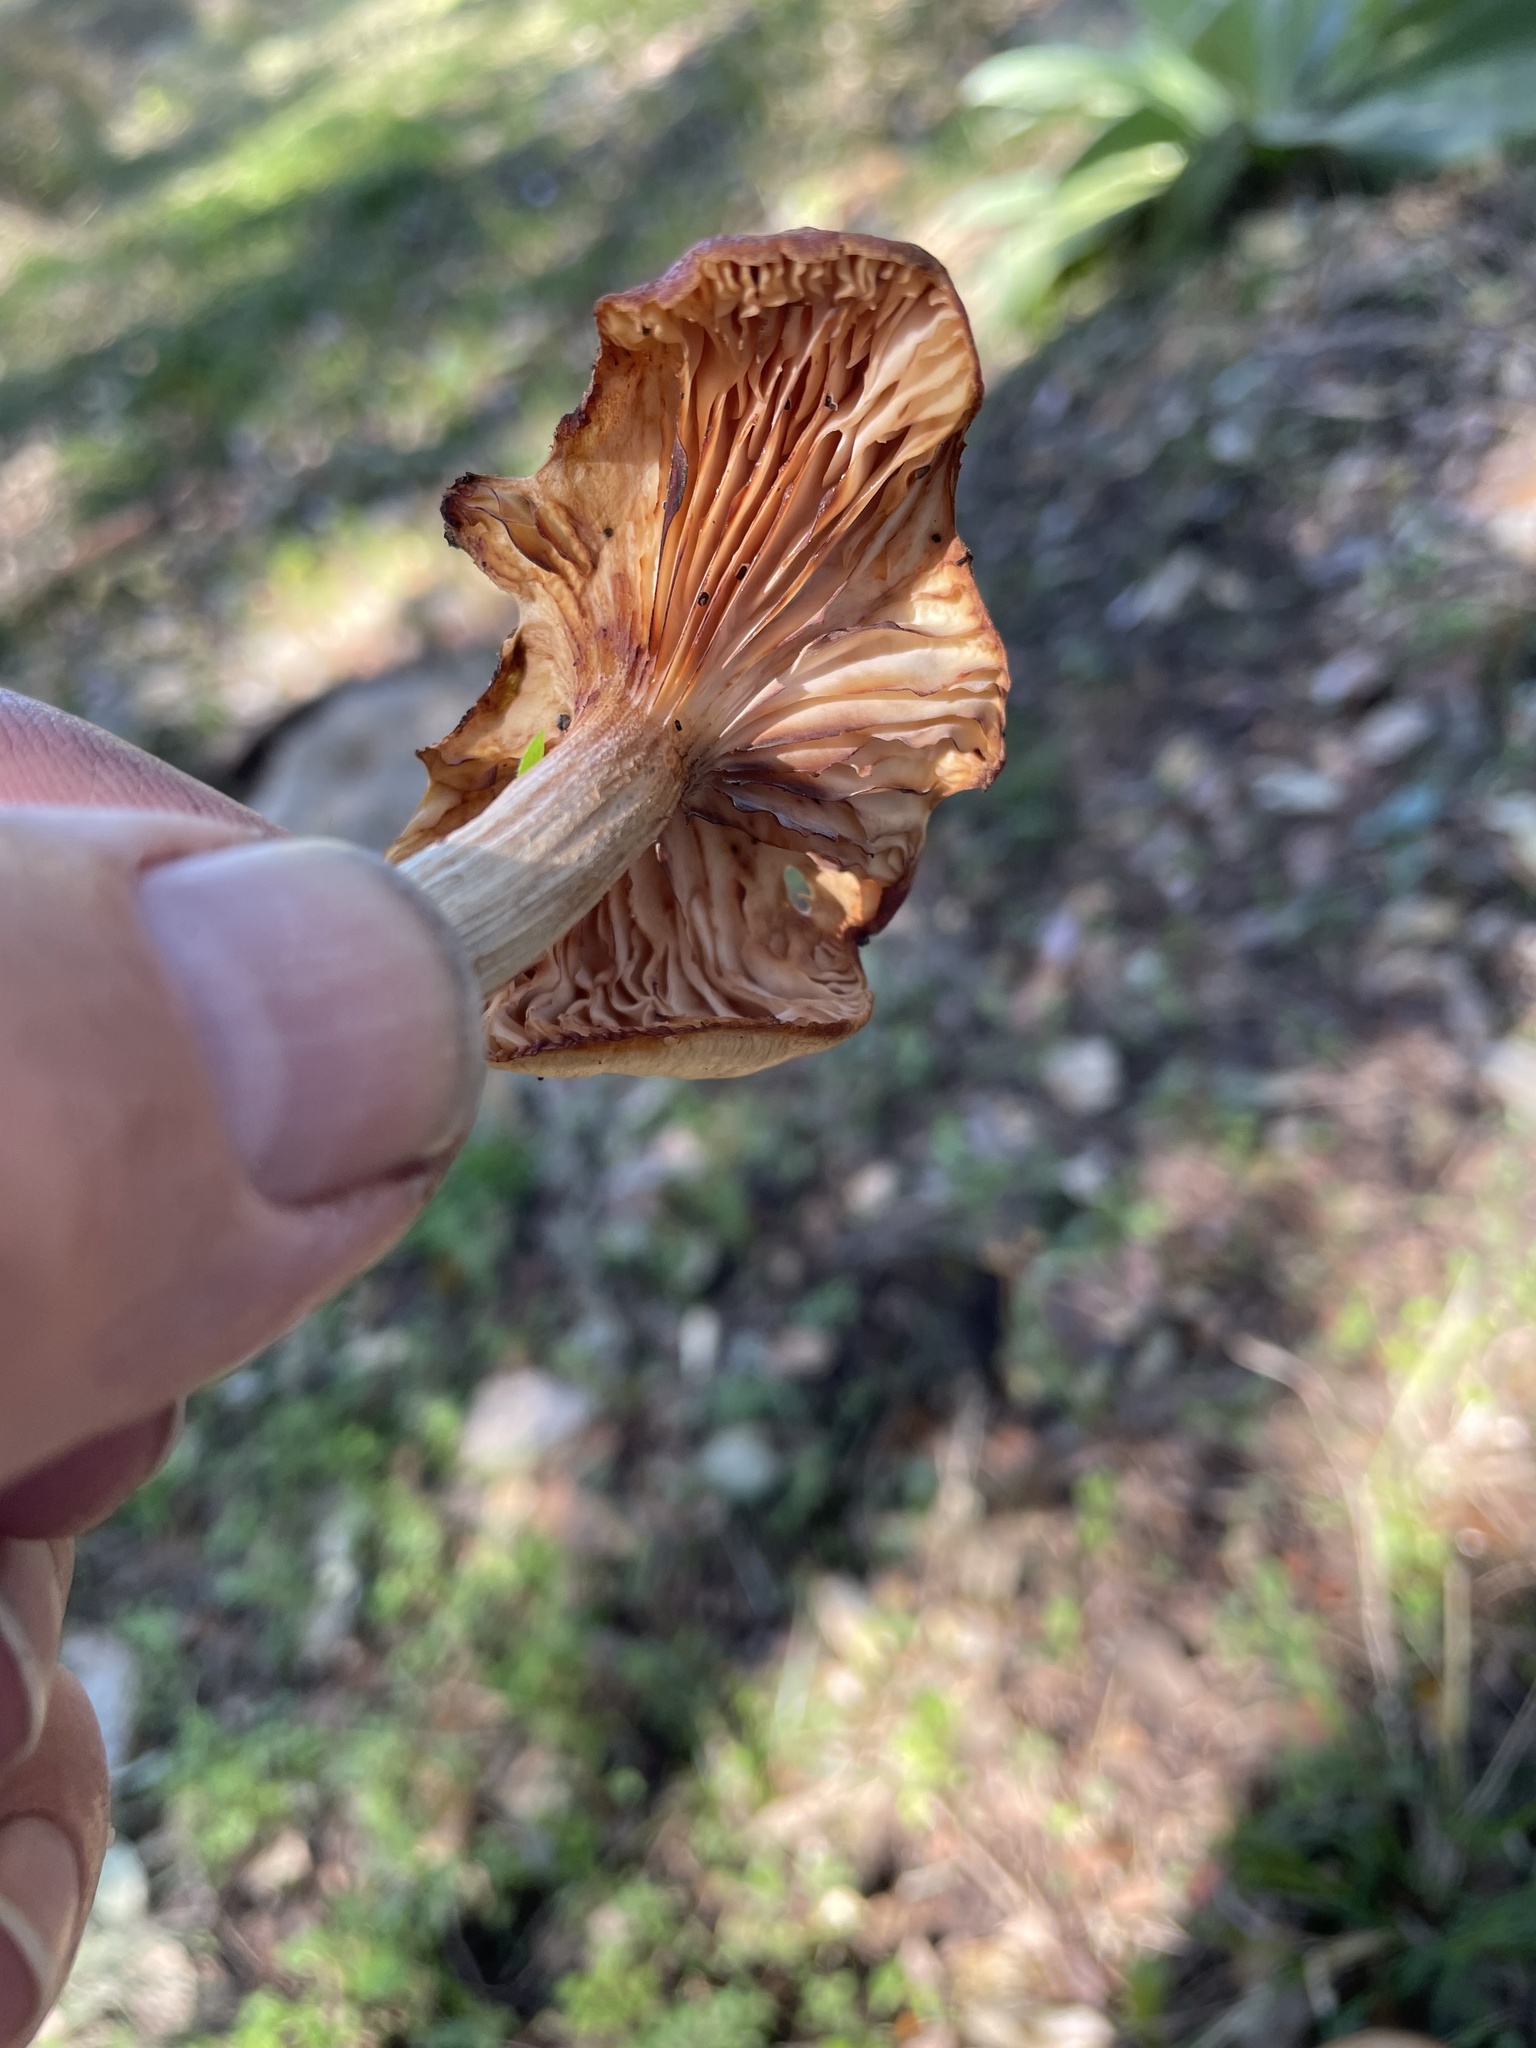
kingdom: Fungi
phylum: Basidiomycota
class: Agaricomycetes
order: Agaricales
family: Physalacriaceae
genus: Desarmillaria
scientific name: Desarmillaria caespitosa
